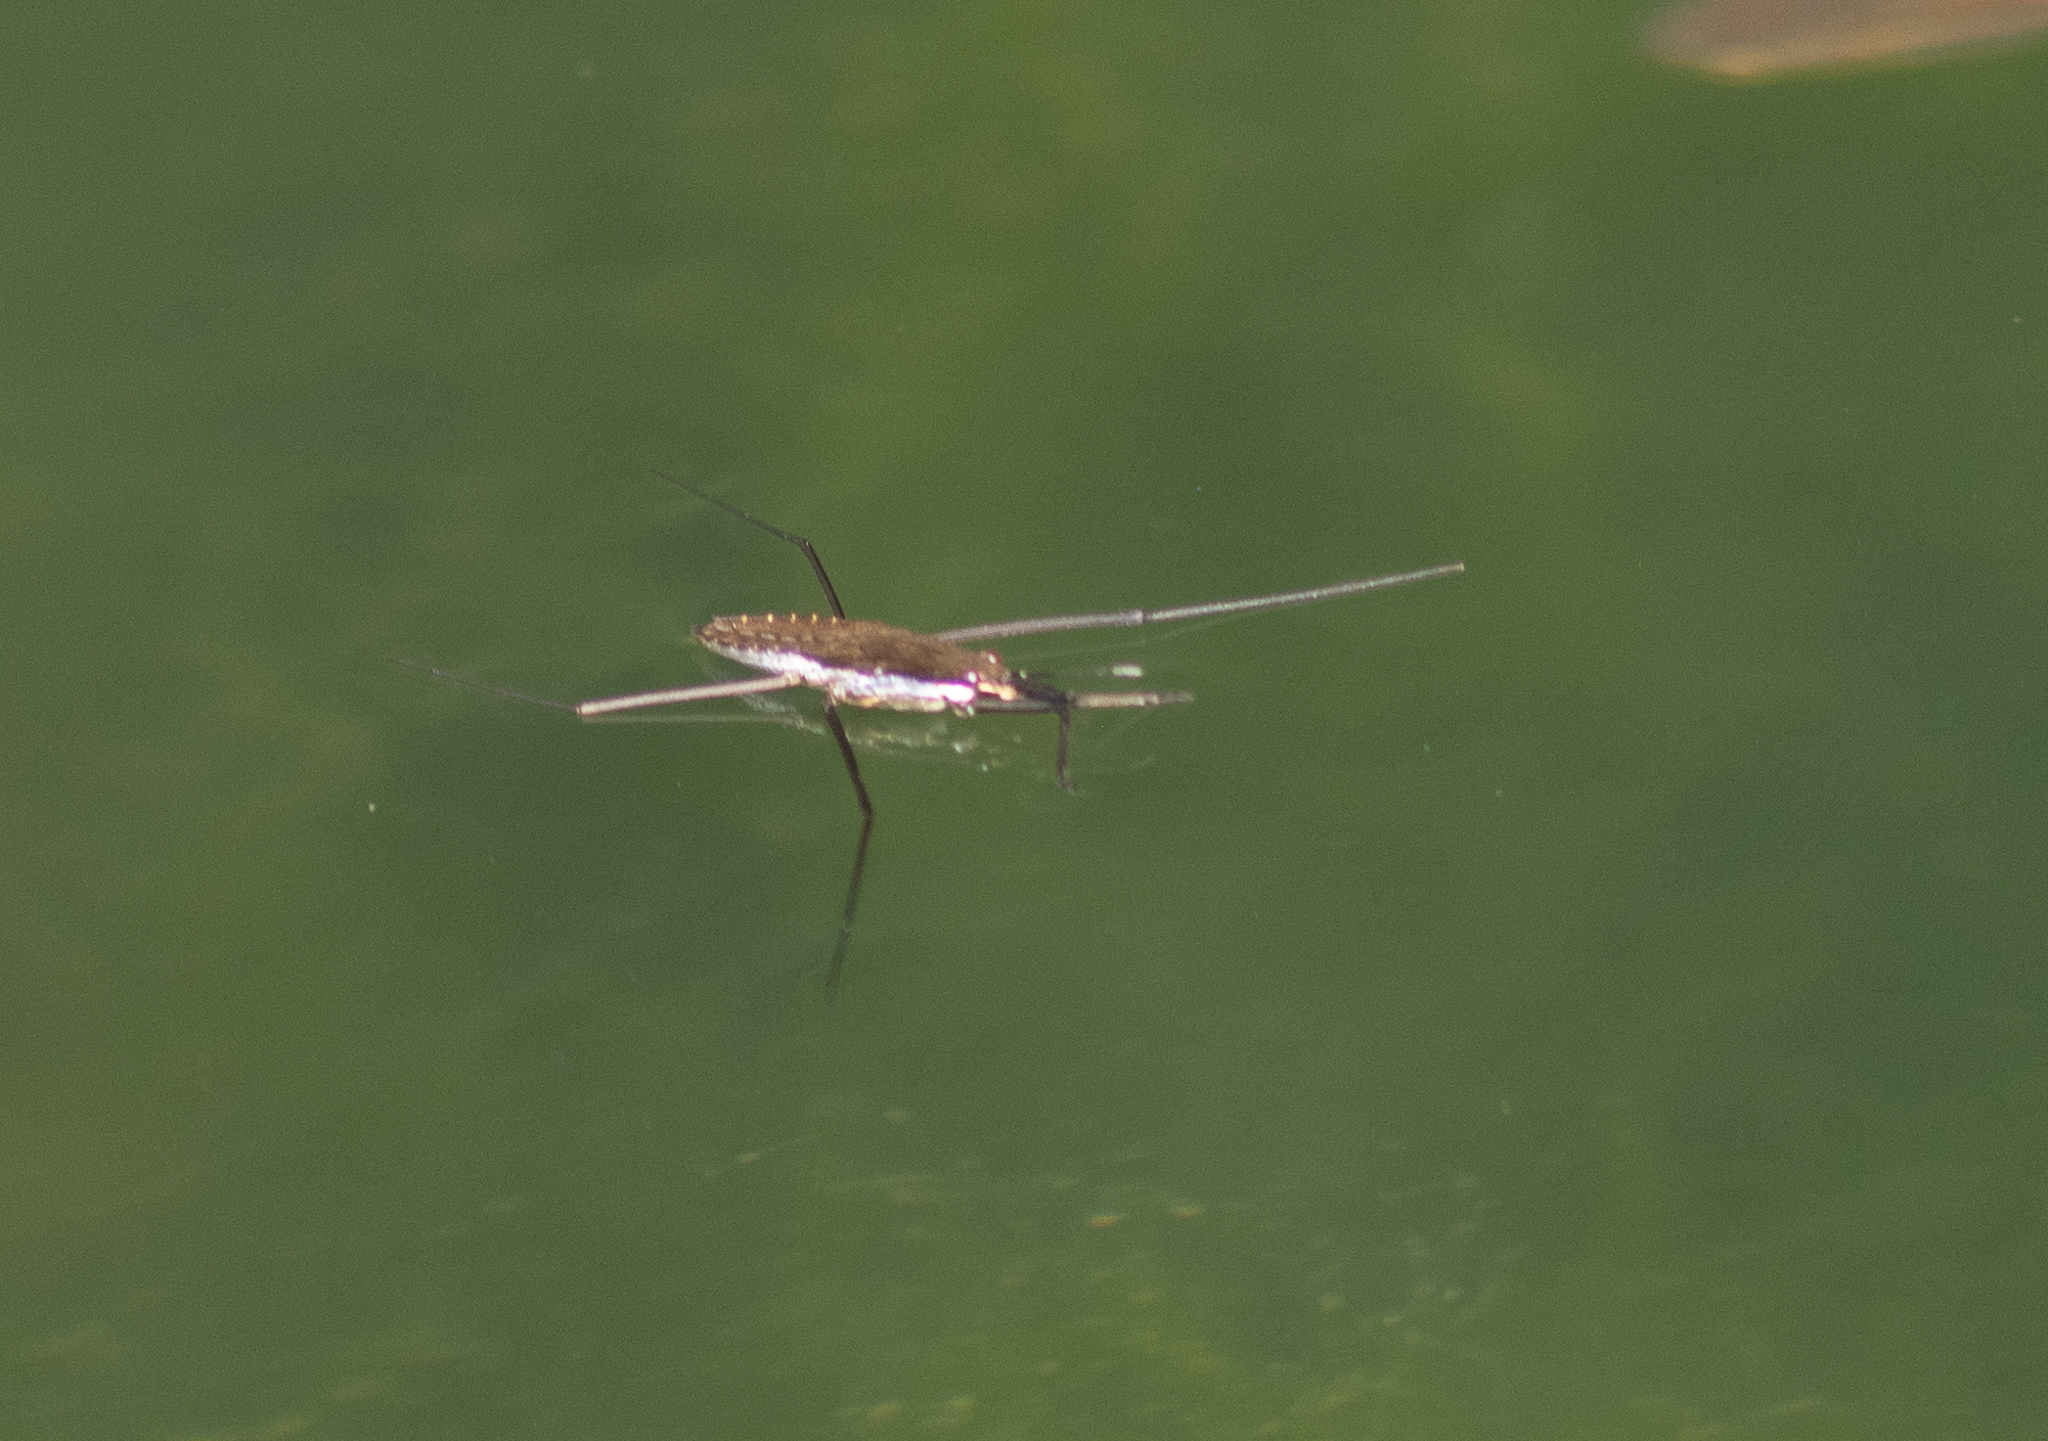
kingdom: Animalia
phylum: Arthropoda
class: Insecta
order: Hemiptera
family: Gerridae
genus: Aquarius
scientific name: Aquarius remigis
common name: Common water strider
